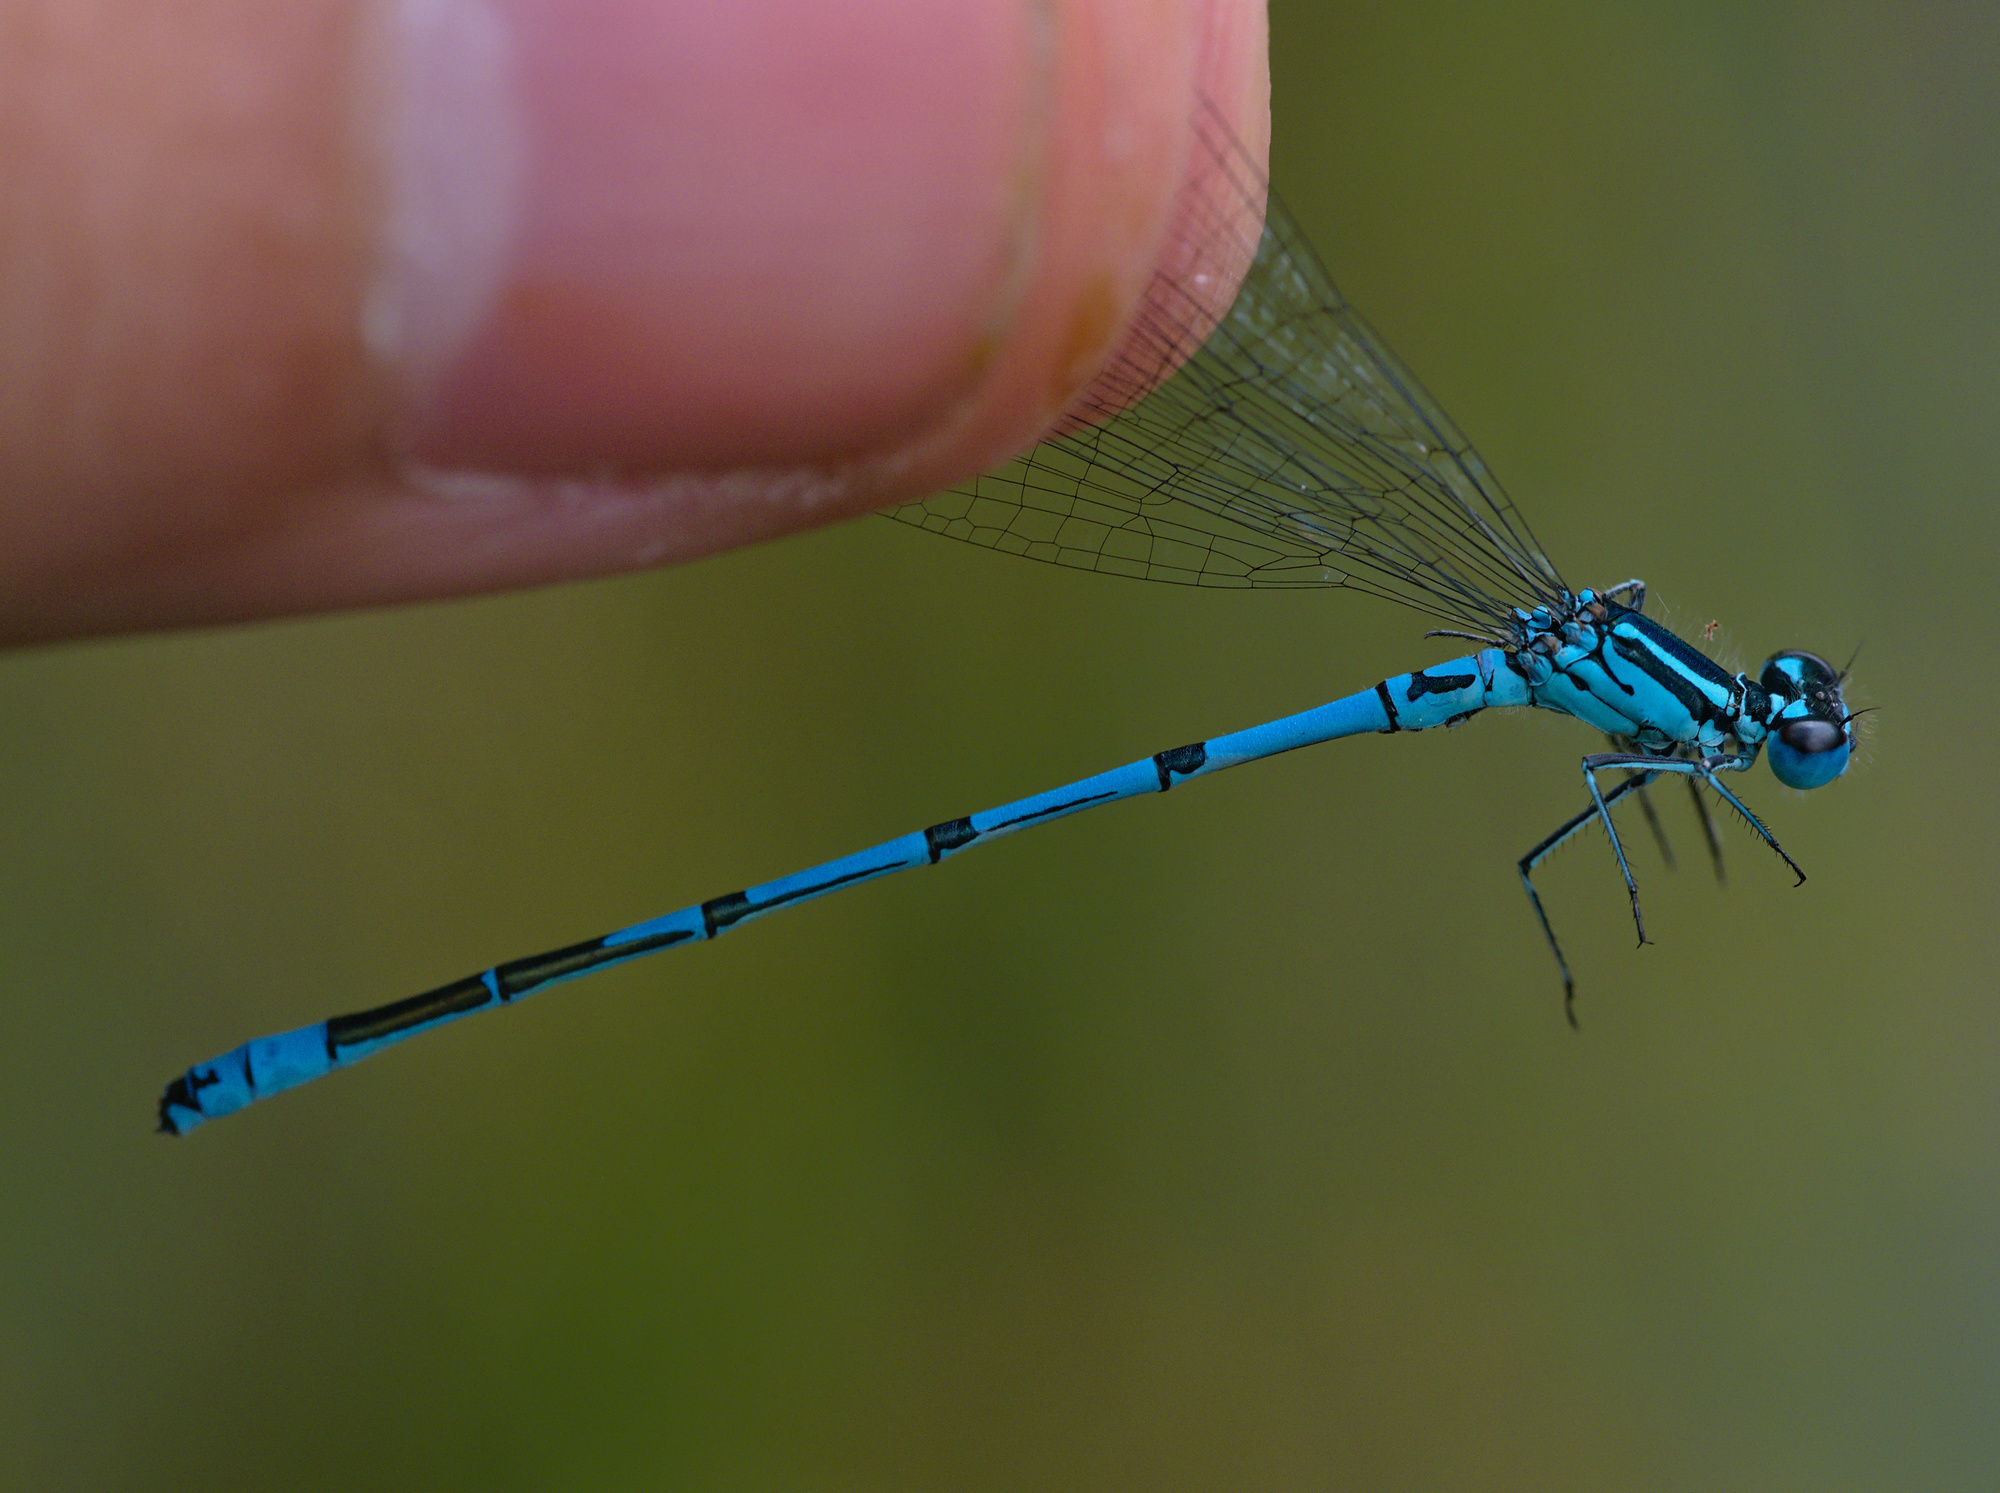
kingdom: Animalia
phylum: Arthropoda
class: Insecta
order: Odonata
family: Coenagrionidae
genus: Coenagrion
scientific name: Coenagrion puella
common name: Azure damselfly
